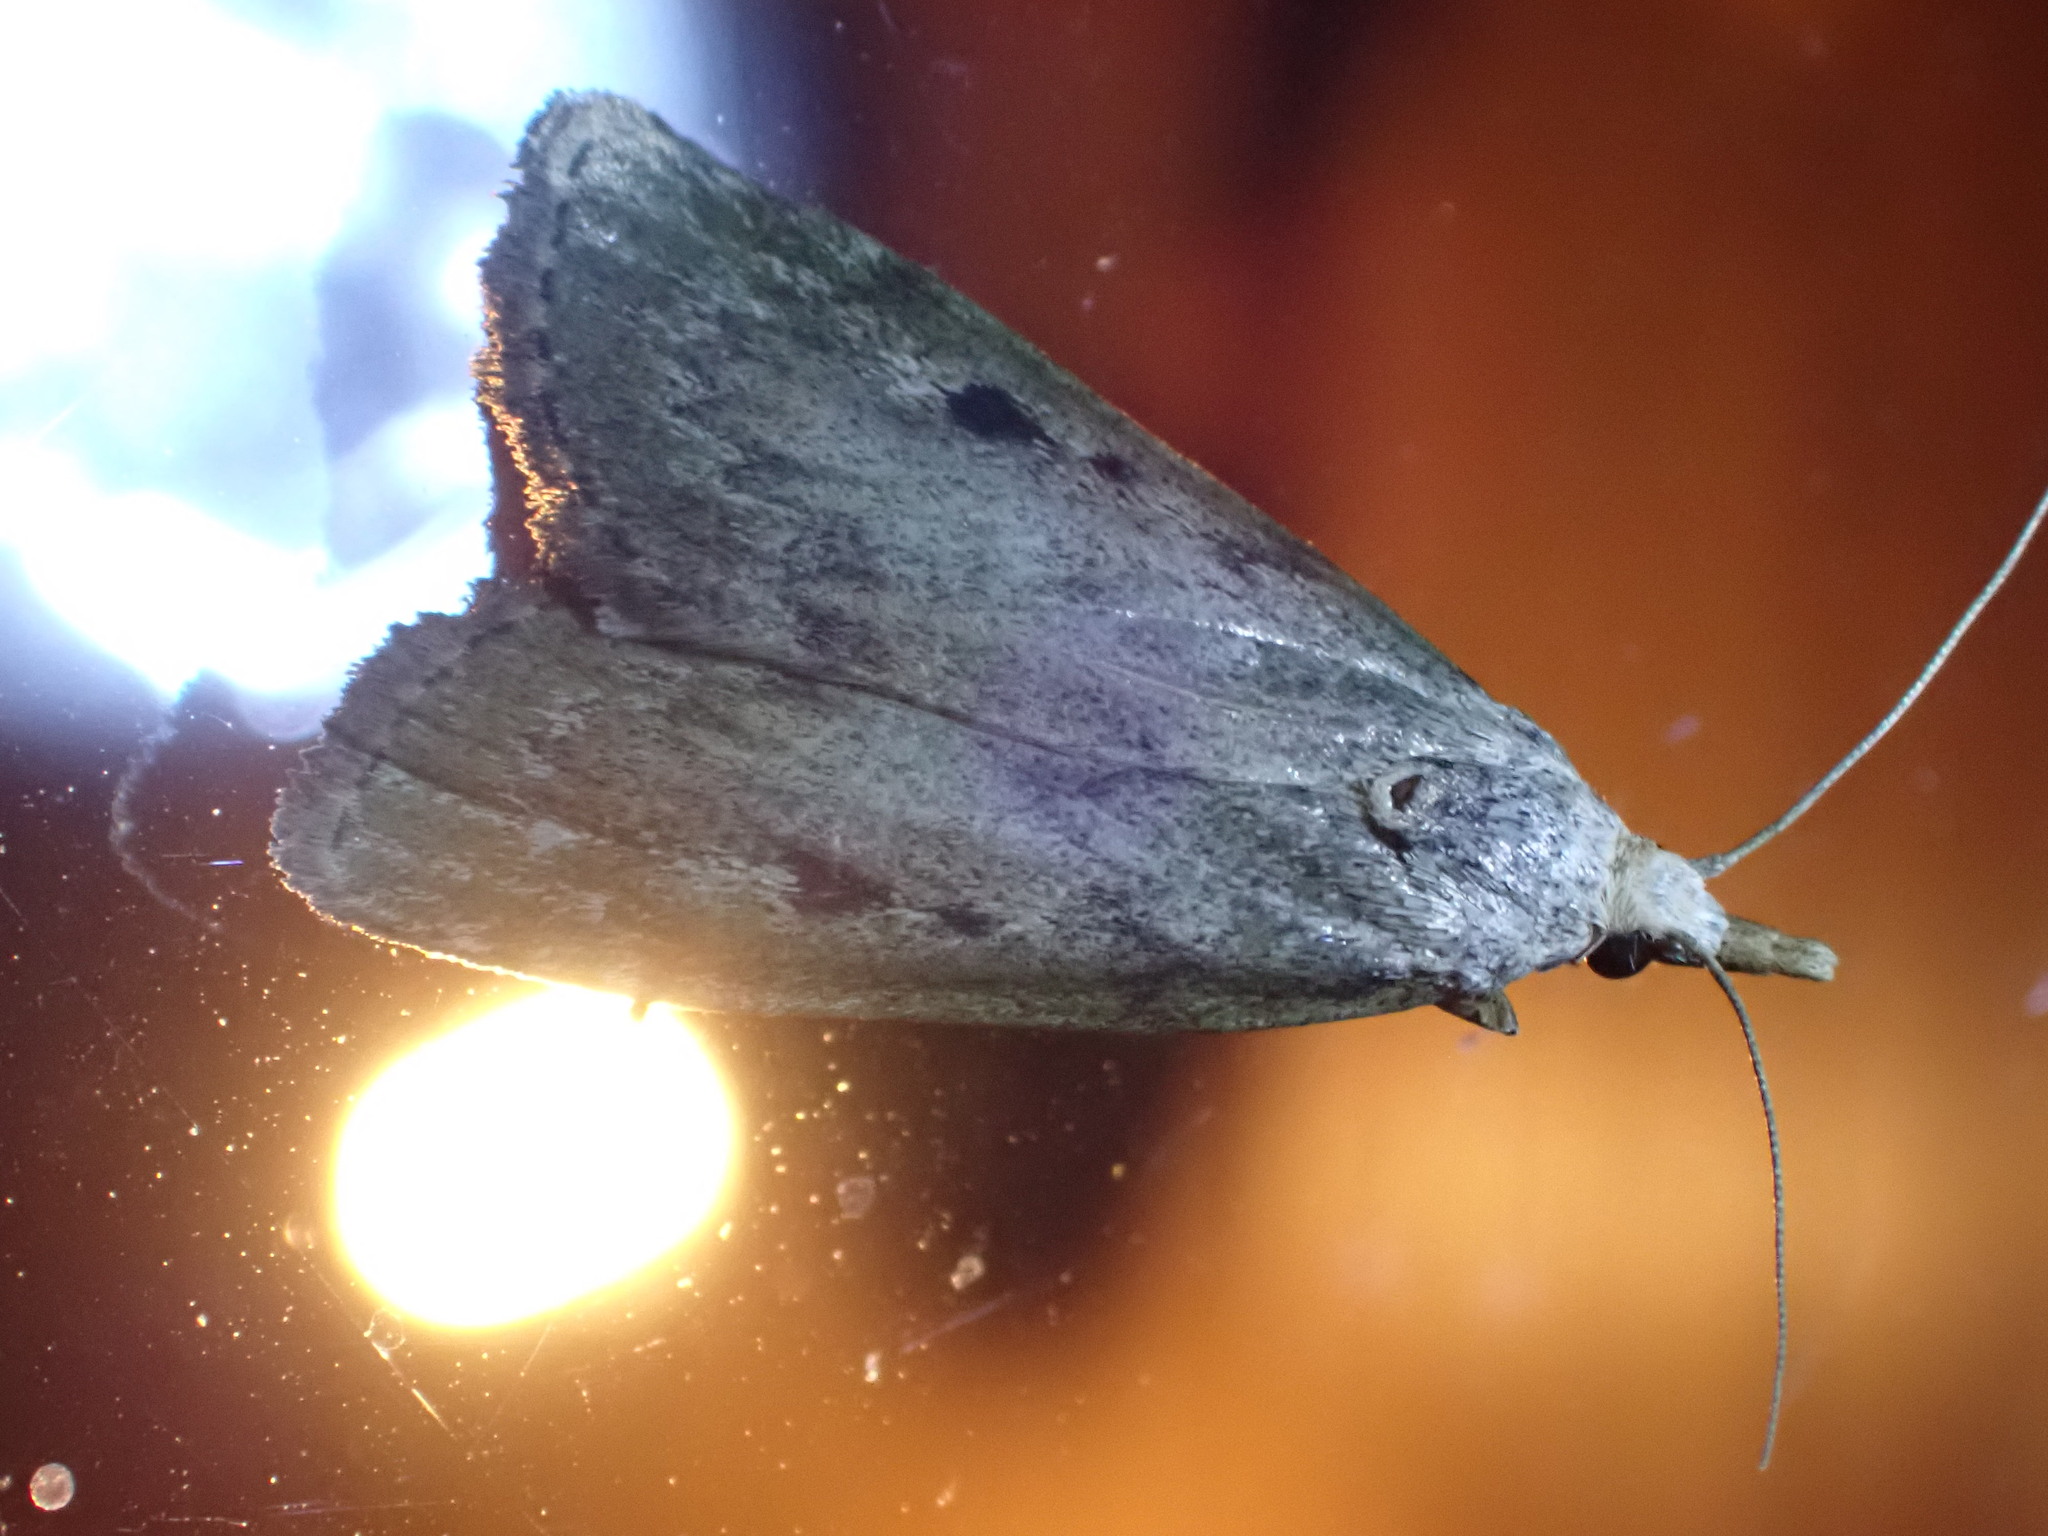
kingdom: Animalia
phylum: Arthropoda
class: Insecta
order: Lepidoptera
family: Pyralidae
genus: Aphomia
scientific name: Aphomia sociella
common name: Bee moth
